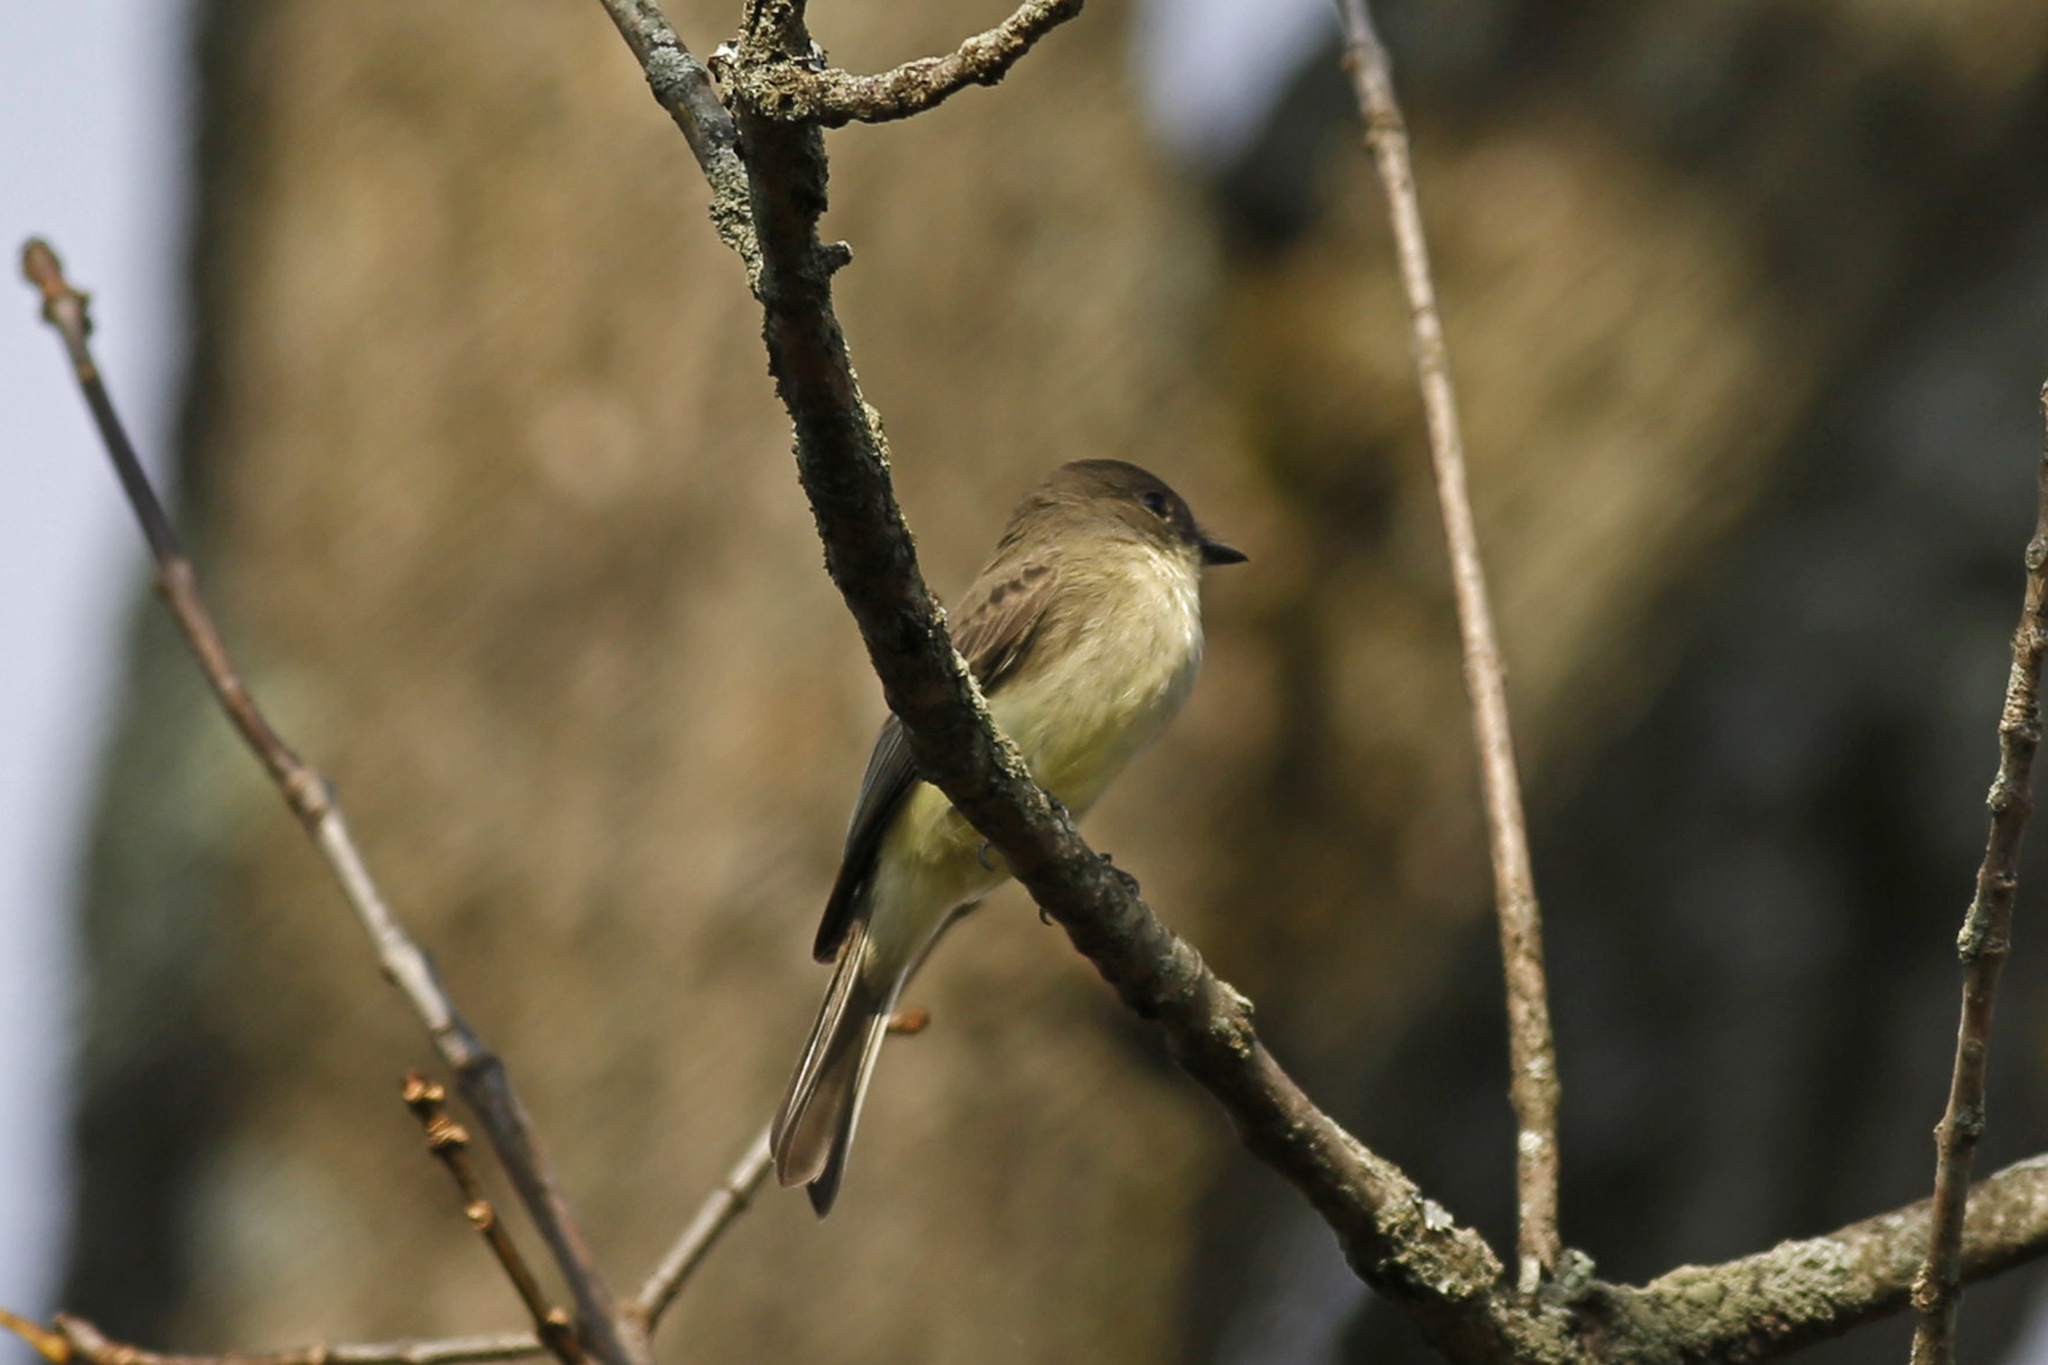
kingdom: Animalia
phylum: Chordata
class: Aves
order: Passeriformes
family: Tyrannidae
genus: Sayornis
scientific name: Sayornis phoebe
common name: Eastern phoebe
